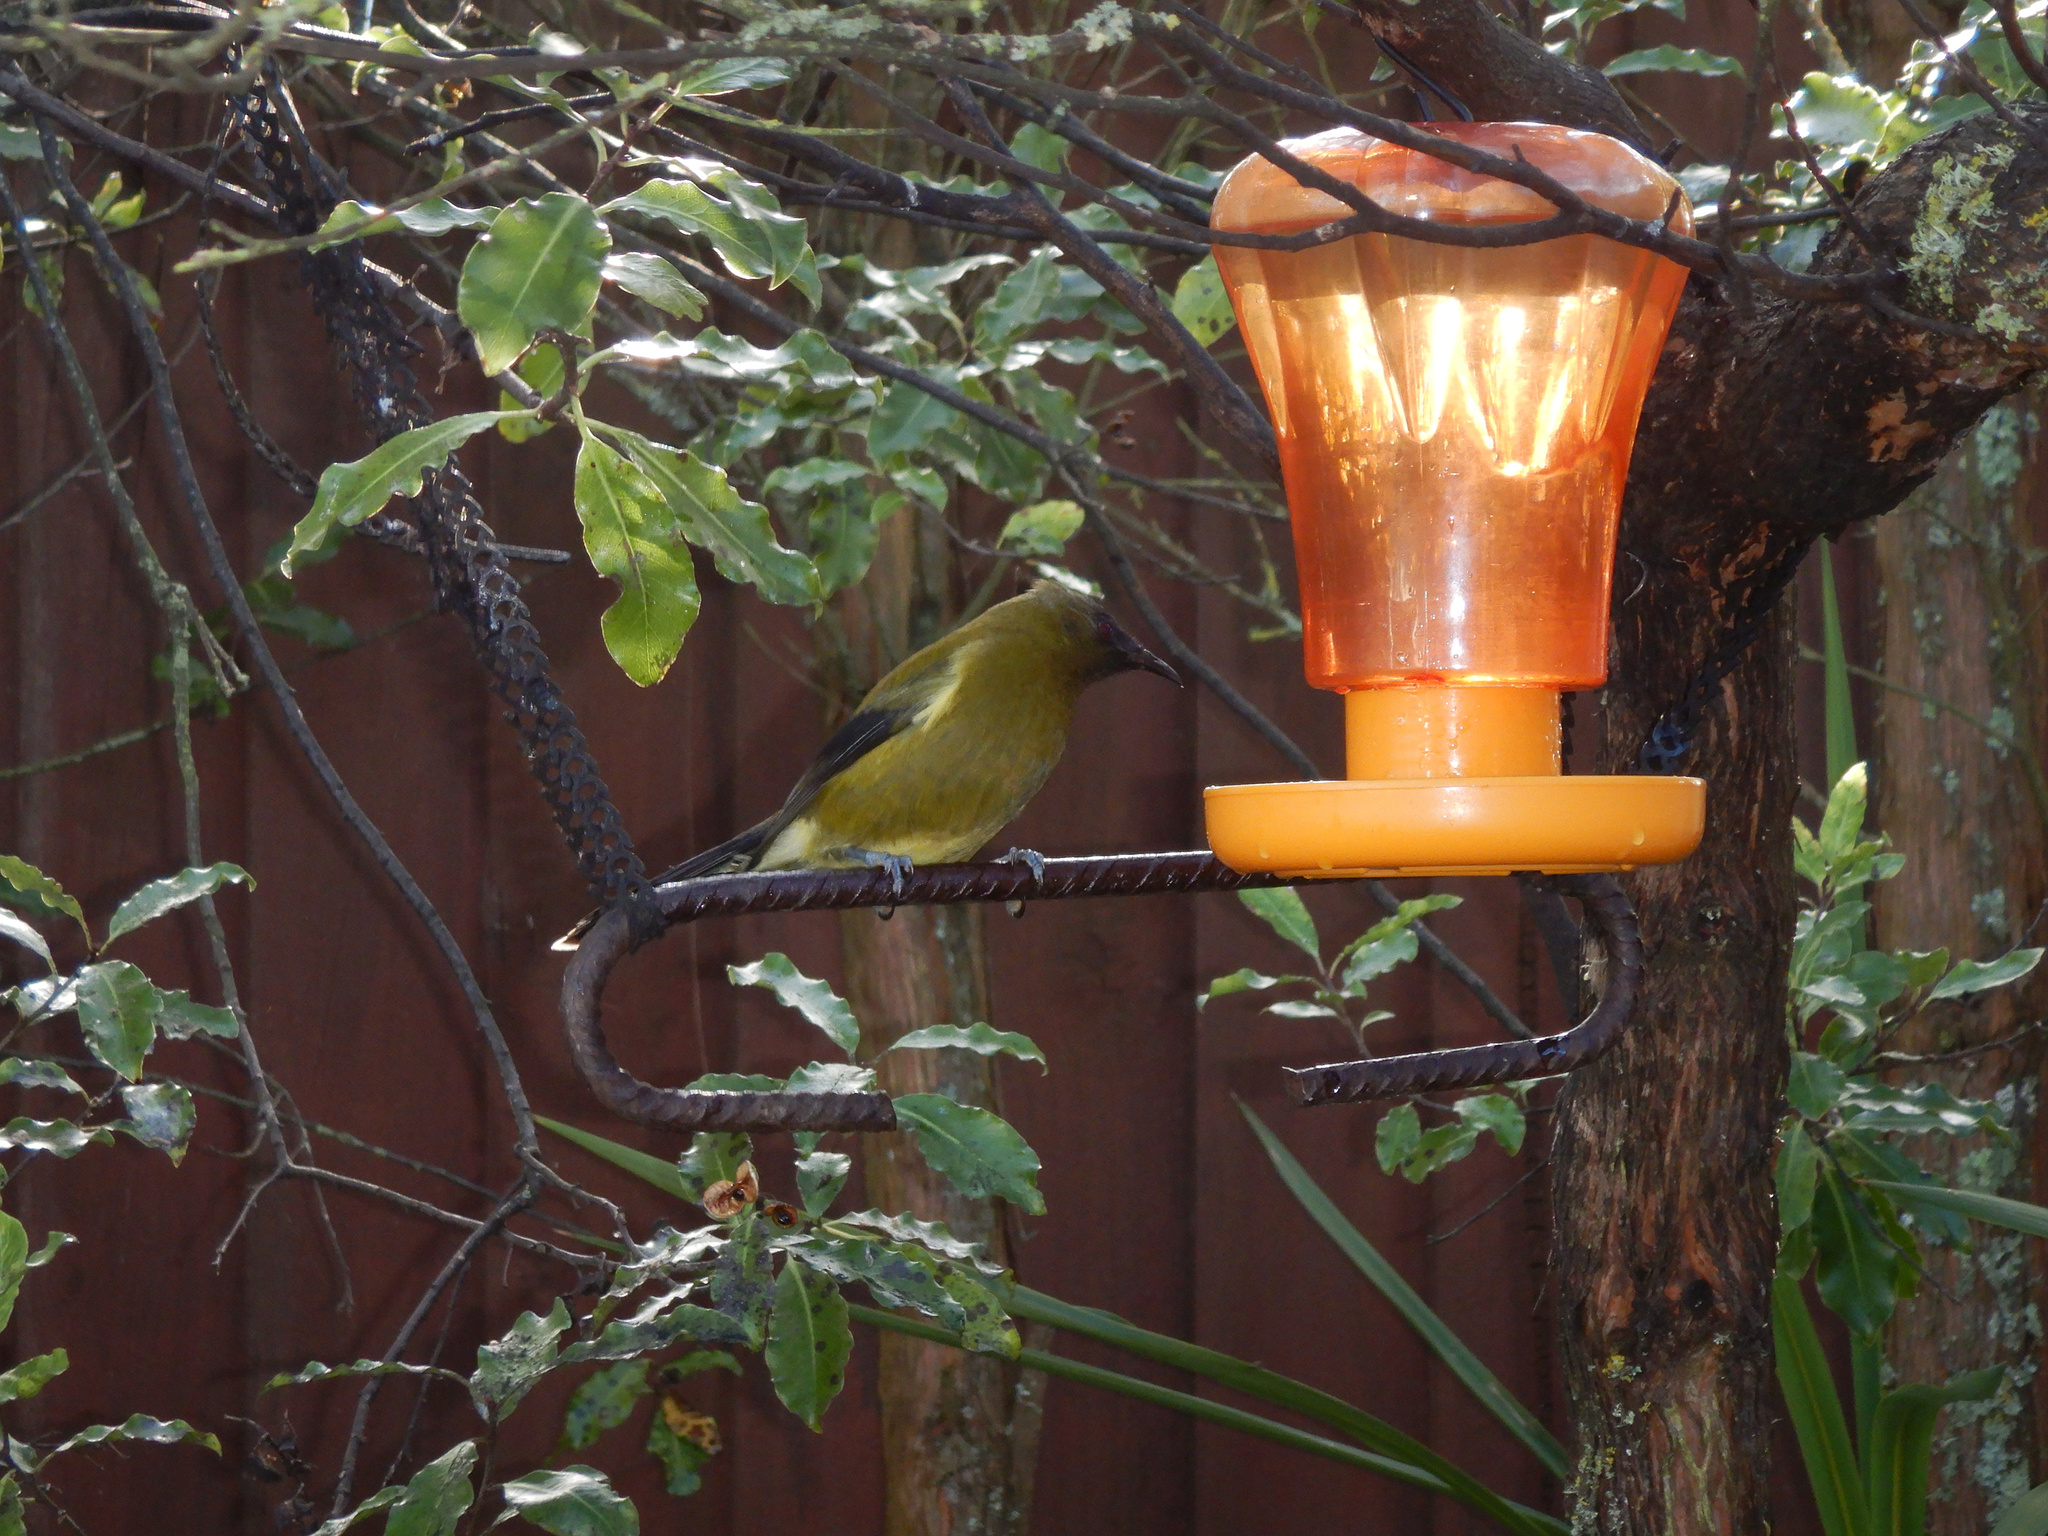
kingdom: Animalia
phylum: Chordata
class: Aves
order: Passeriformes
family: Meliphagidae
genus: Anthornis
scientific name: Anthornis melanura
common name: New zealand bellbird
